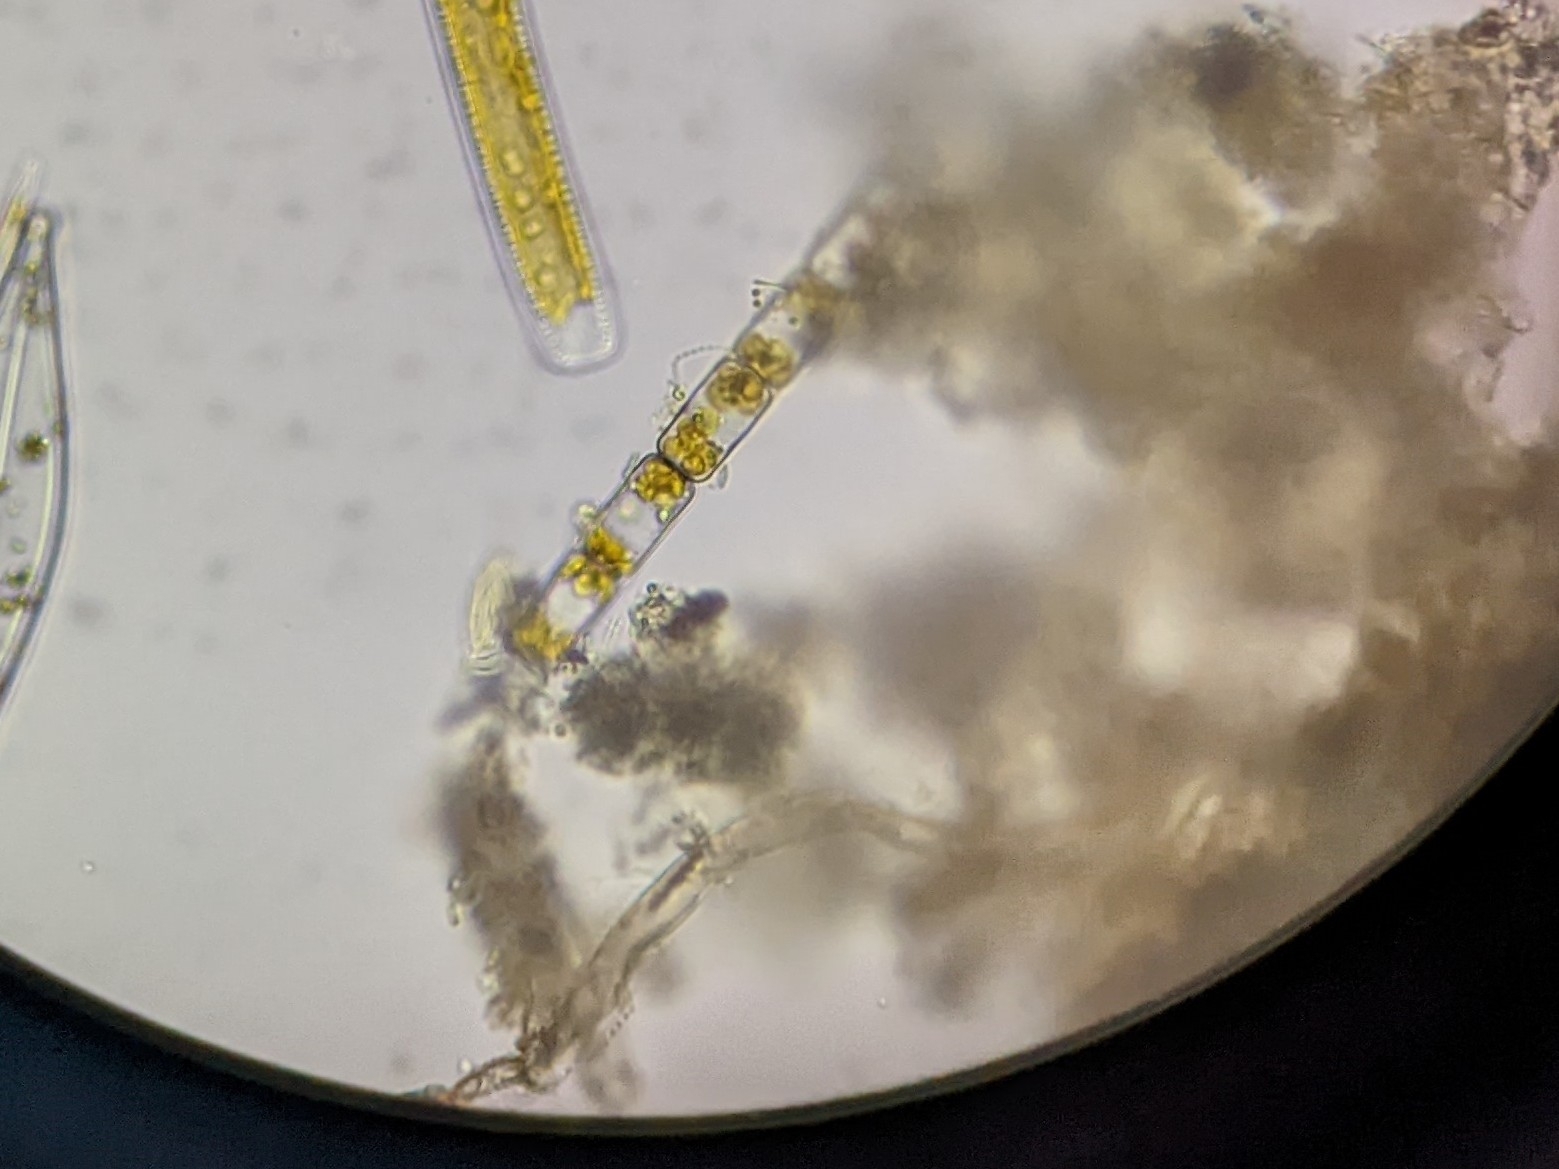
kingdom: Chromista
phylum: Ochrophyta
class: Bacillariophyceae
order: Melosirales
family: Melosiraceae
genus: Melosira
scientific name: Melosira varians
